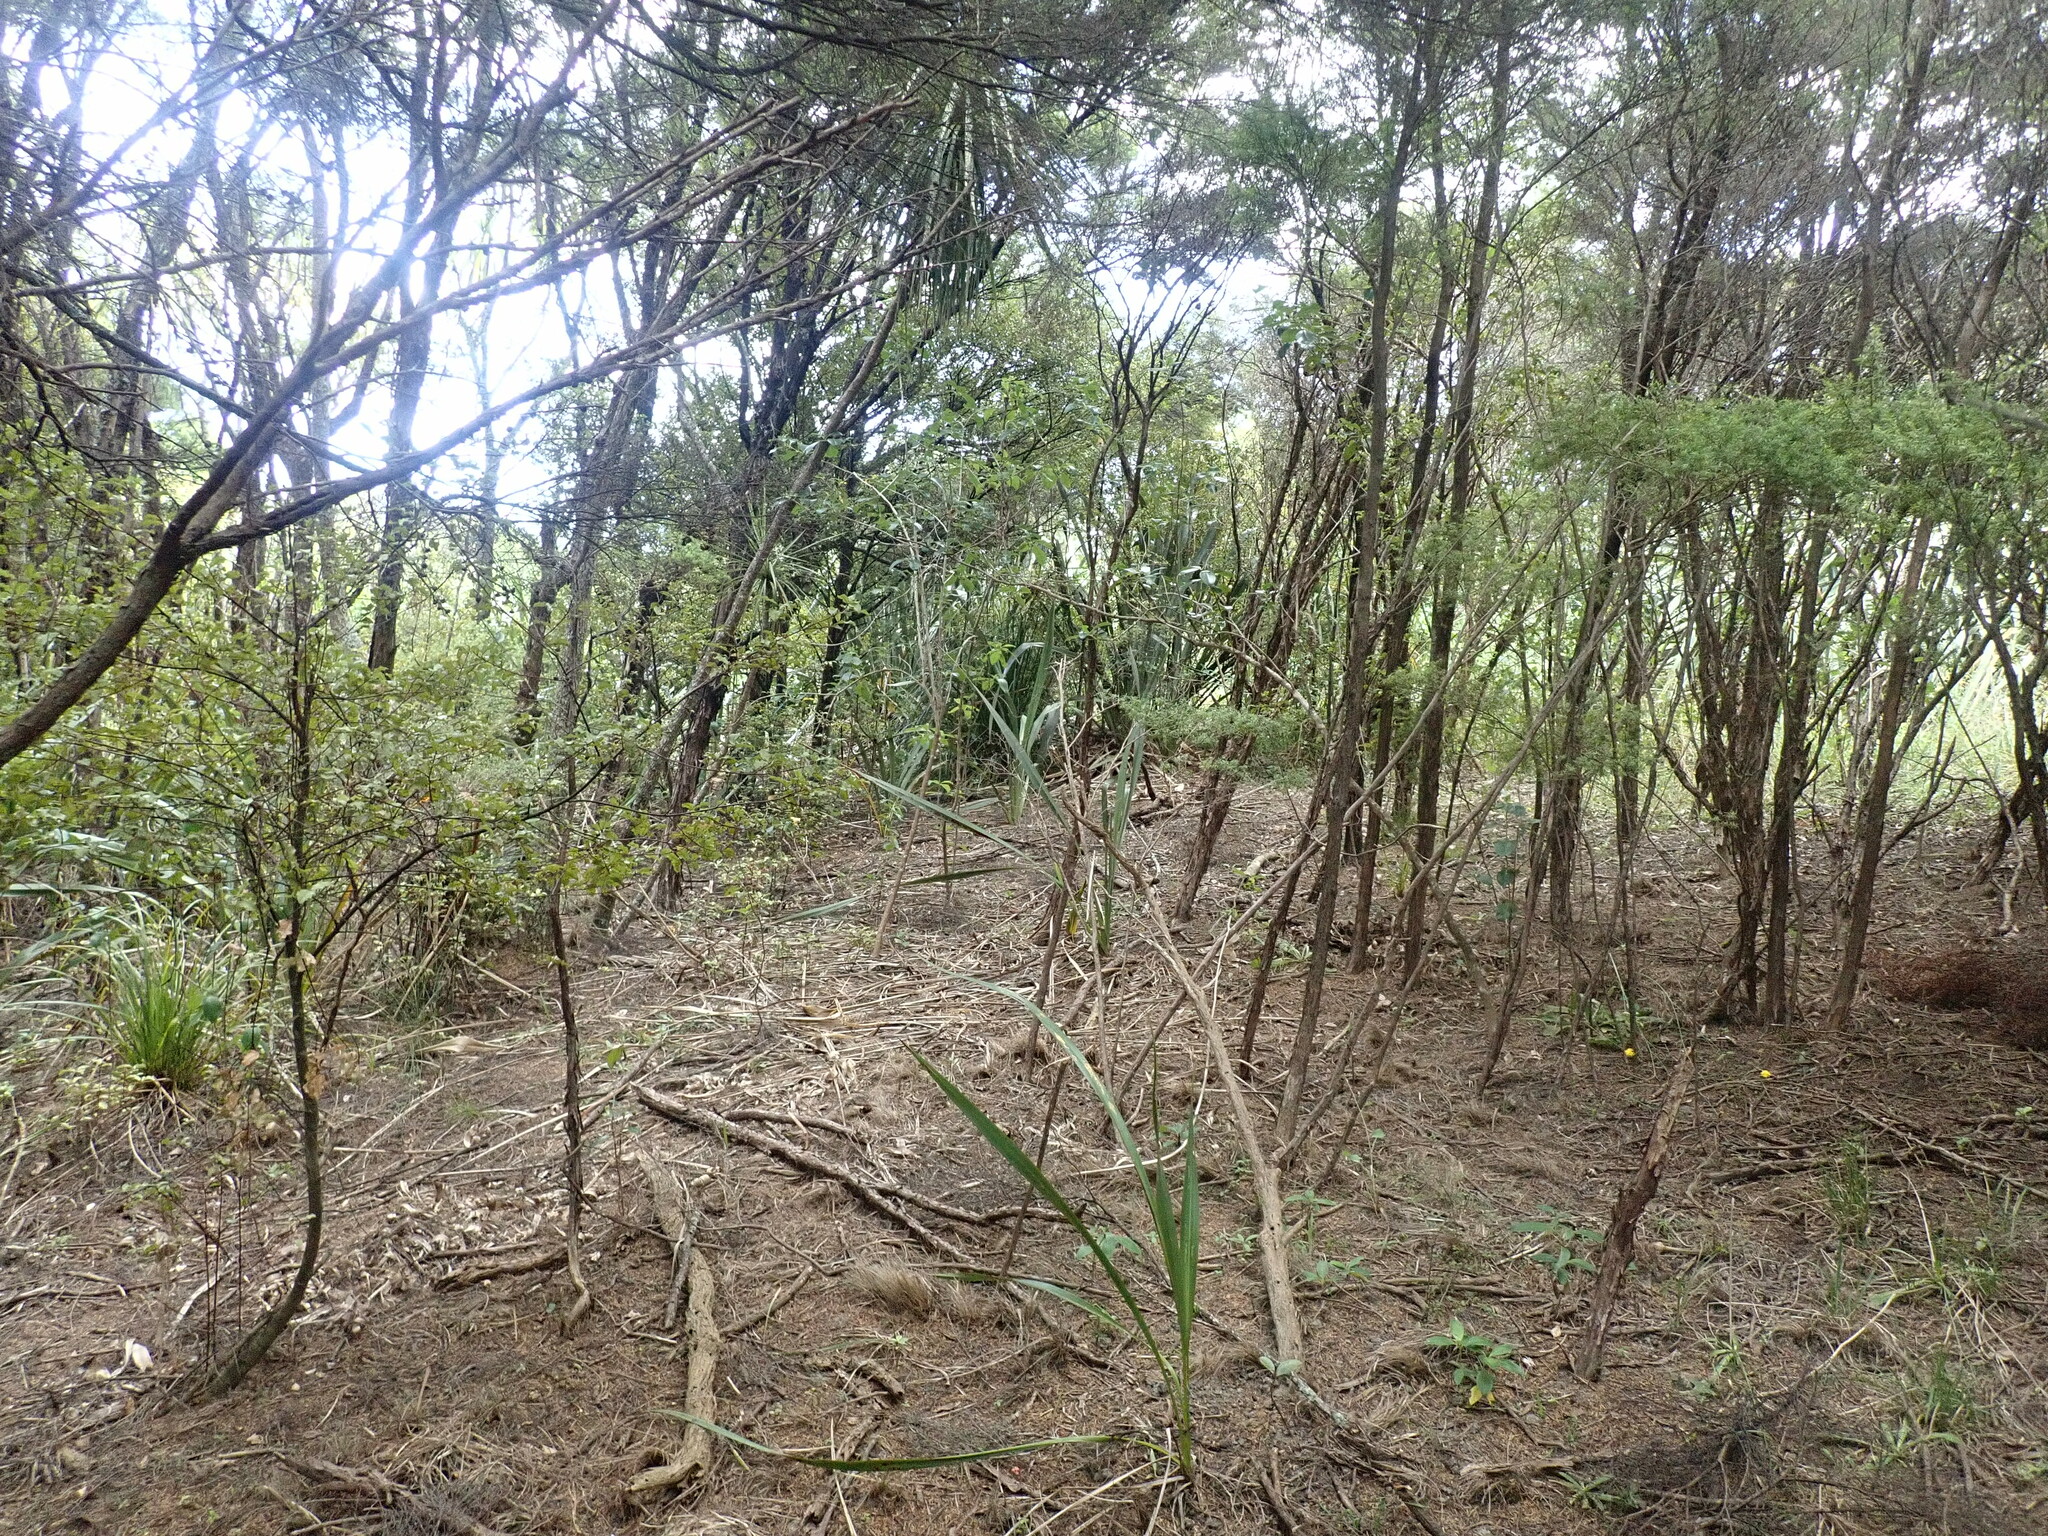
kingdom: Plantae
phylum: Tracheophyta
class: Liliopsida
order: Asparagales
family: Asparagaceae
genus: Cordyline
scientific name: Cordyline australis
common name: Cabbage-palm
